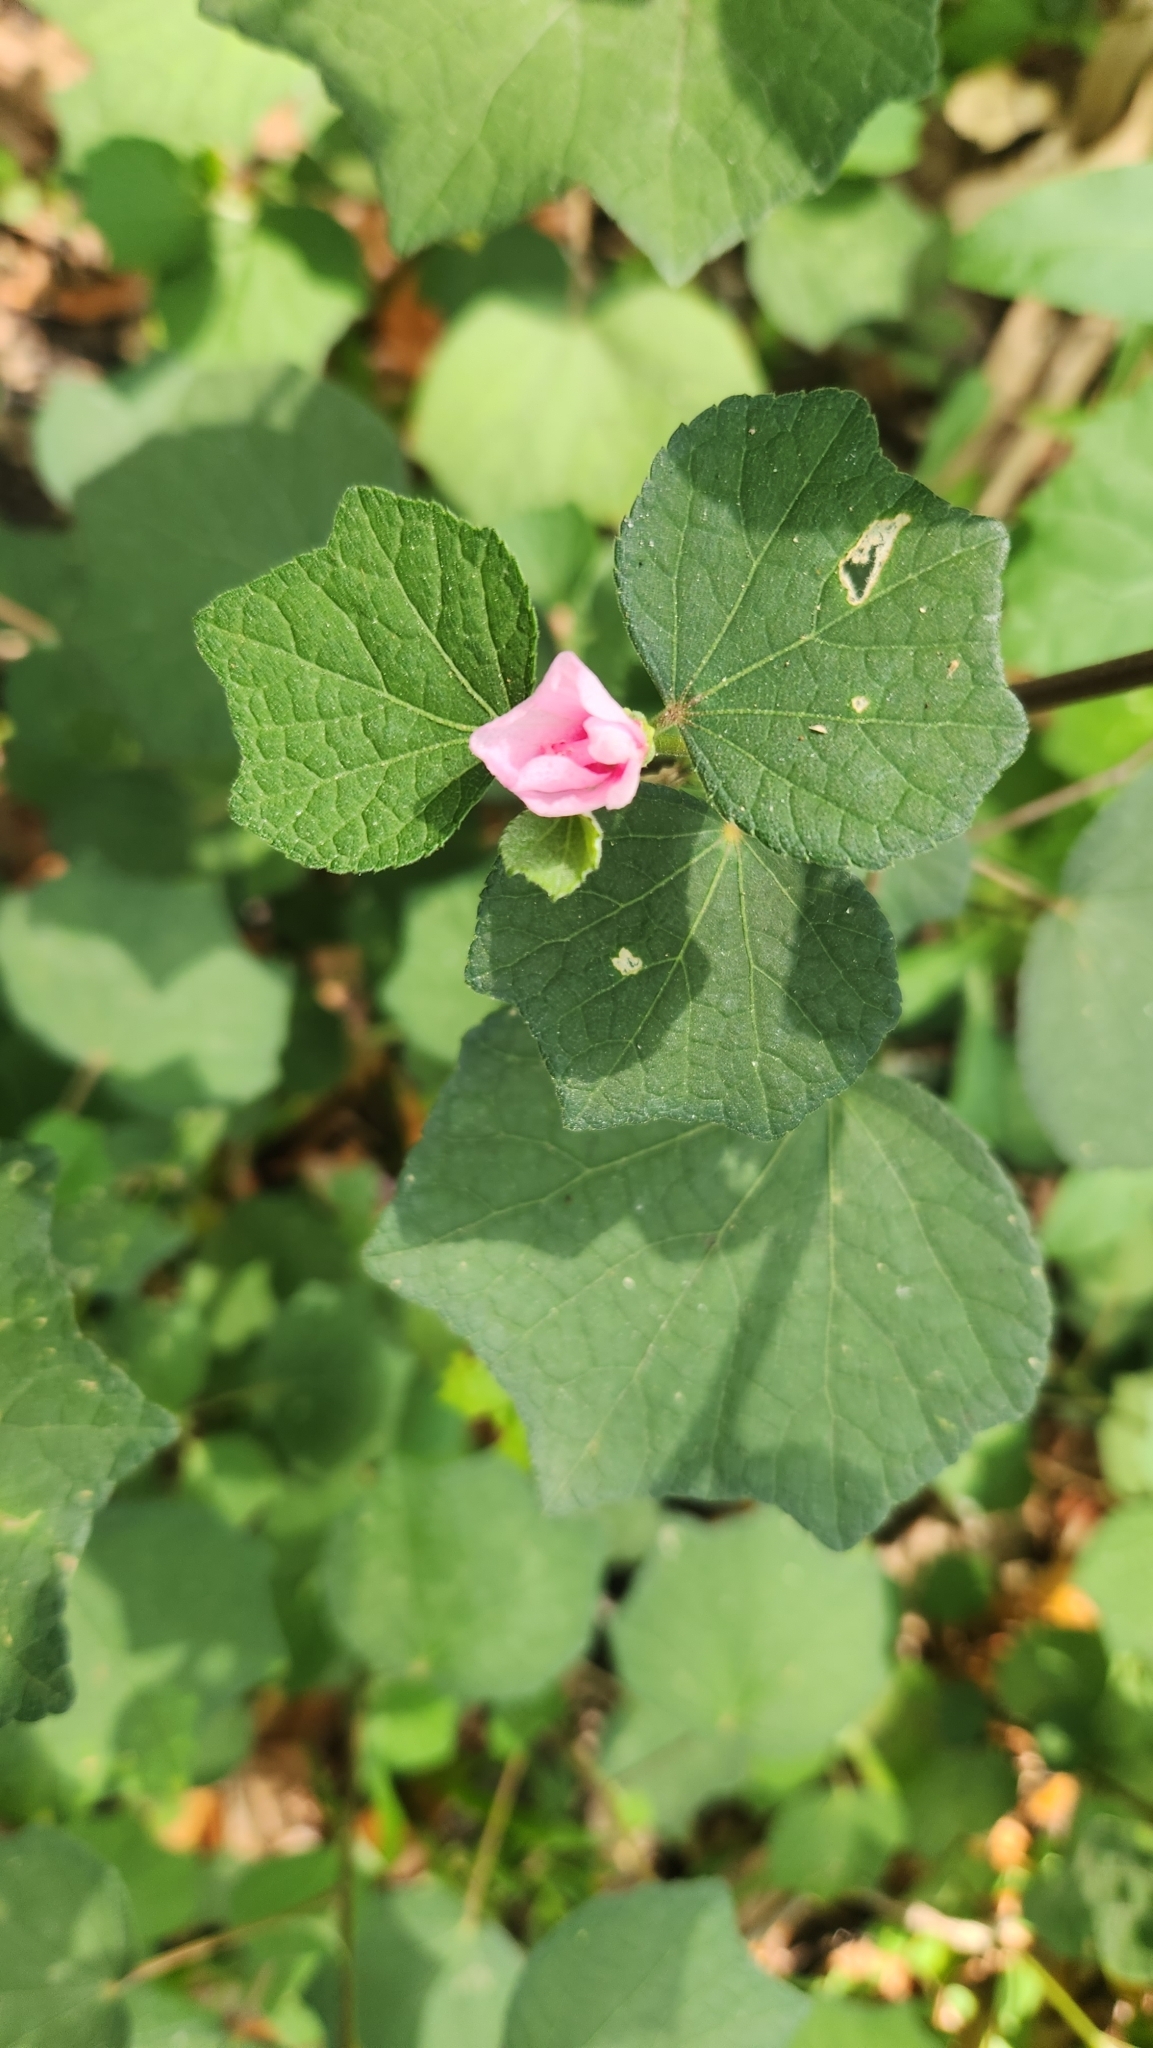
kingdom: Plantae
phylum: Tracheophyta
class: Magnoliopsida
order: Malvales
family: Malvaceae
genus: Urena
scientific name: Urena lobata
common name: Caesarweed
